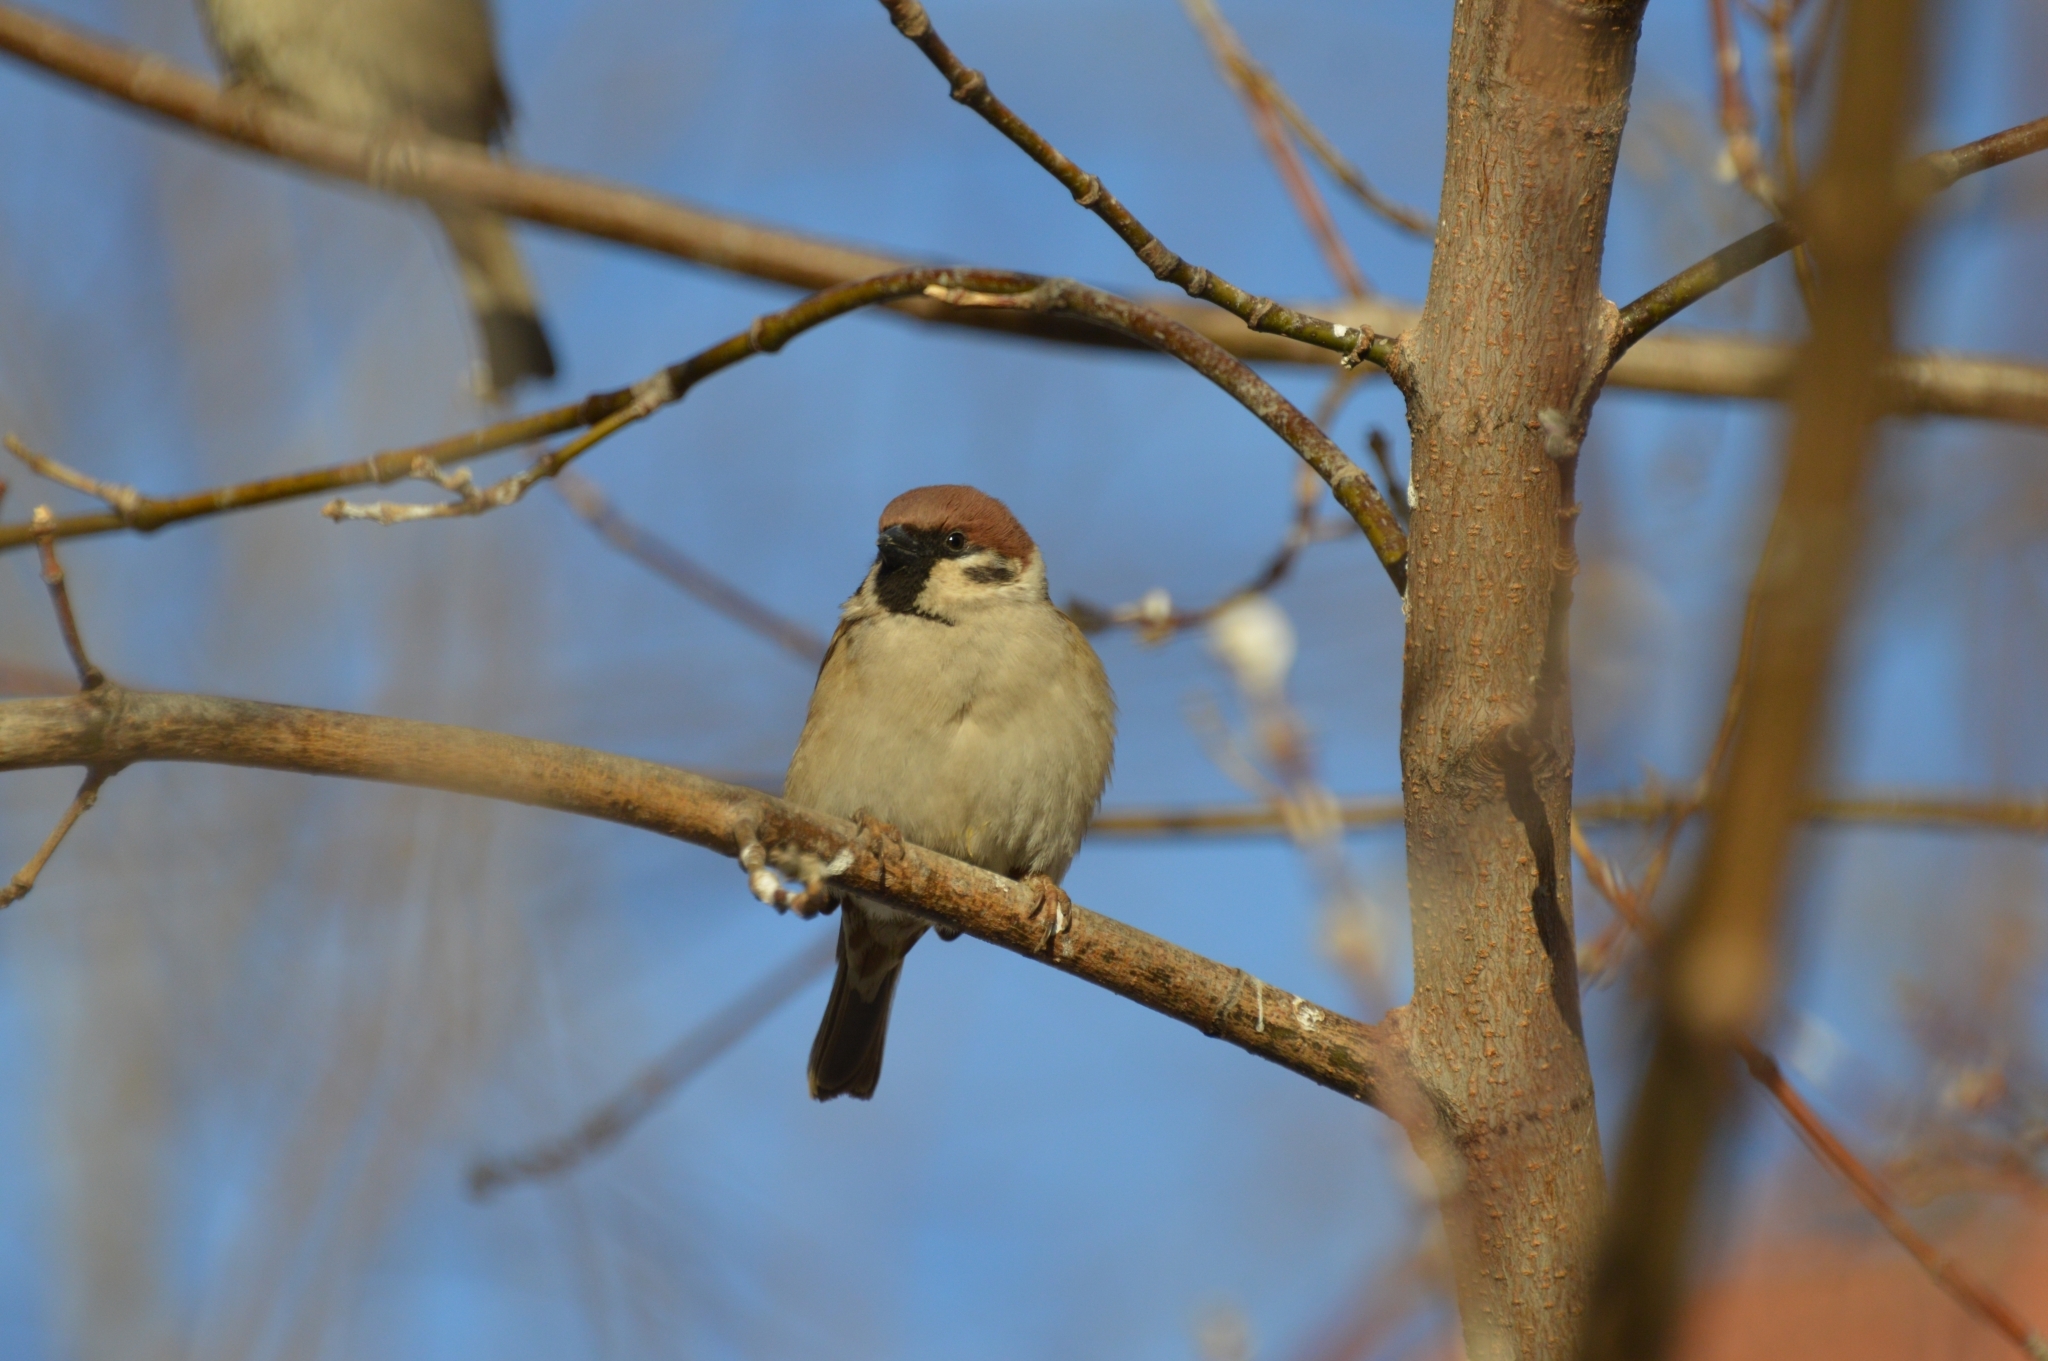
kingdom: Animalia
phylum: Chordata
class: Aves
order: Passeriformes
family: Passeridae
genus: Passer
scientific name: Passer montanus
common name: Eurasian tree sparrow
